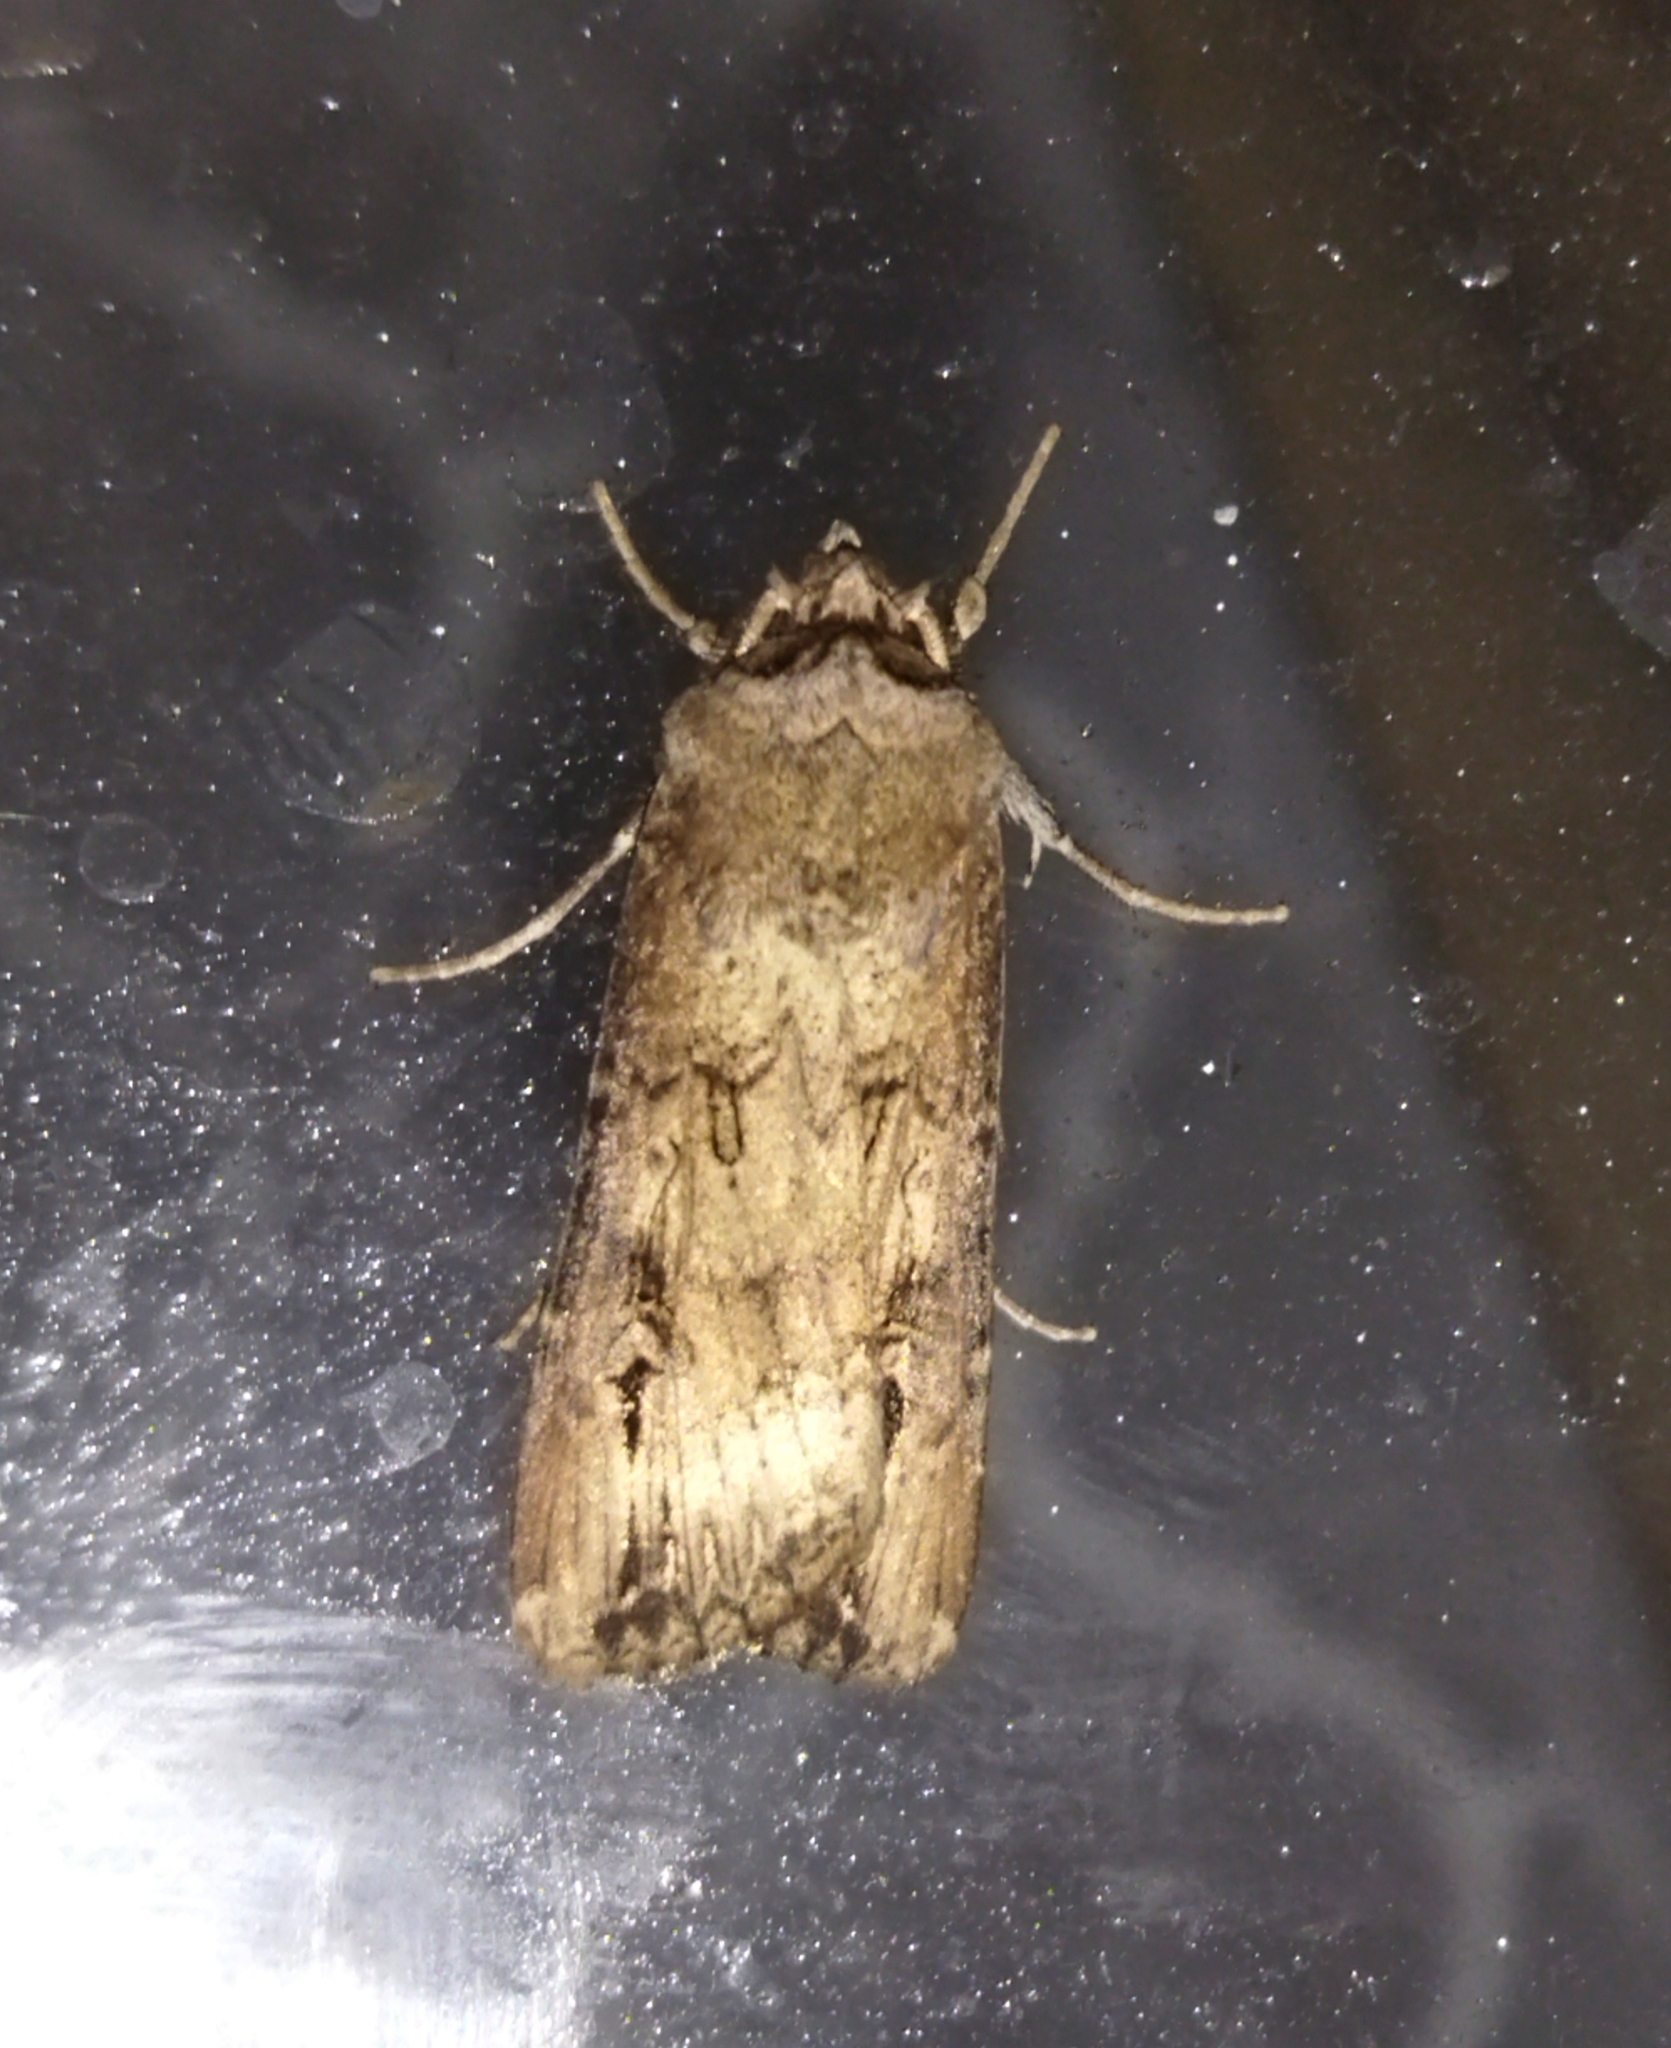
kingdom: Animalia
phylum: Arthropoda
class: Insecta
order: Lepidoptera
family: Noctuidae
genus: Agrotis
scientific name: Agrotis ipsilon
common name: Dark sword-grass
